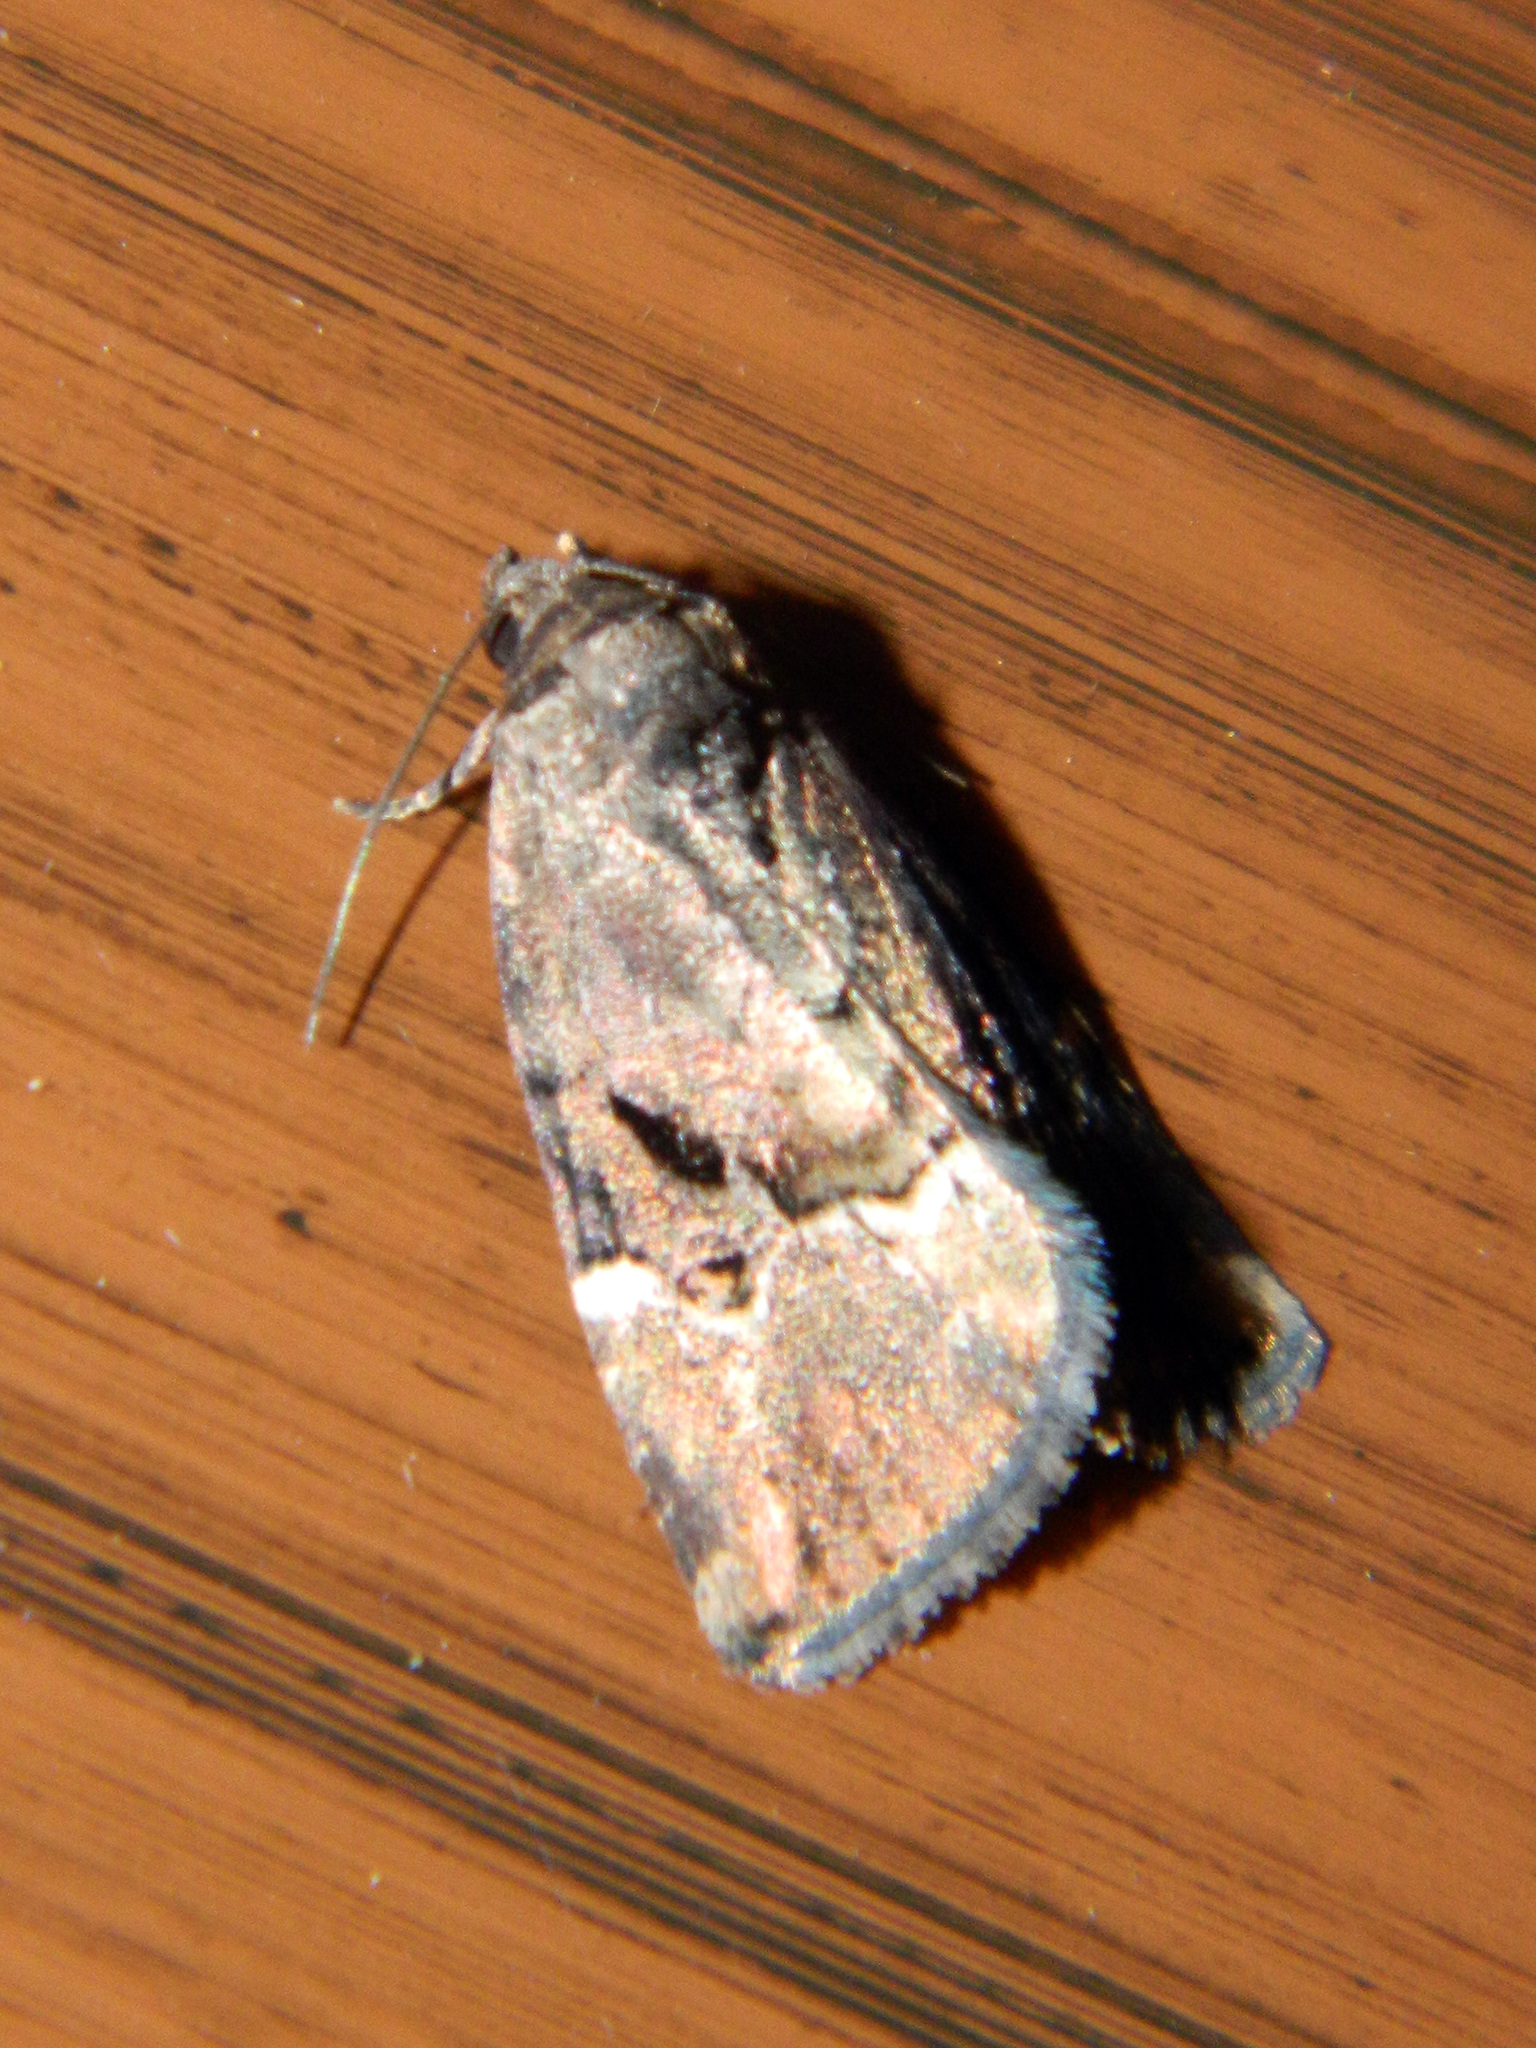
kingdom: Animalia
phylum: Arthropoda
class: Insecta
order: Lepidoptera
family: Noctuidae
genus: Elaphria
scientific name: Elaphria versicolor
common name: Fir harlequin
